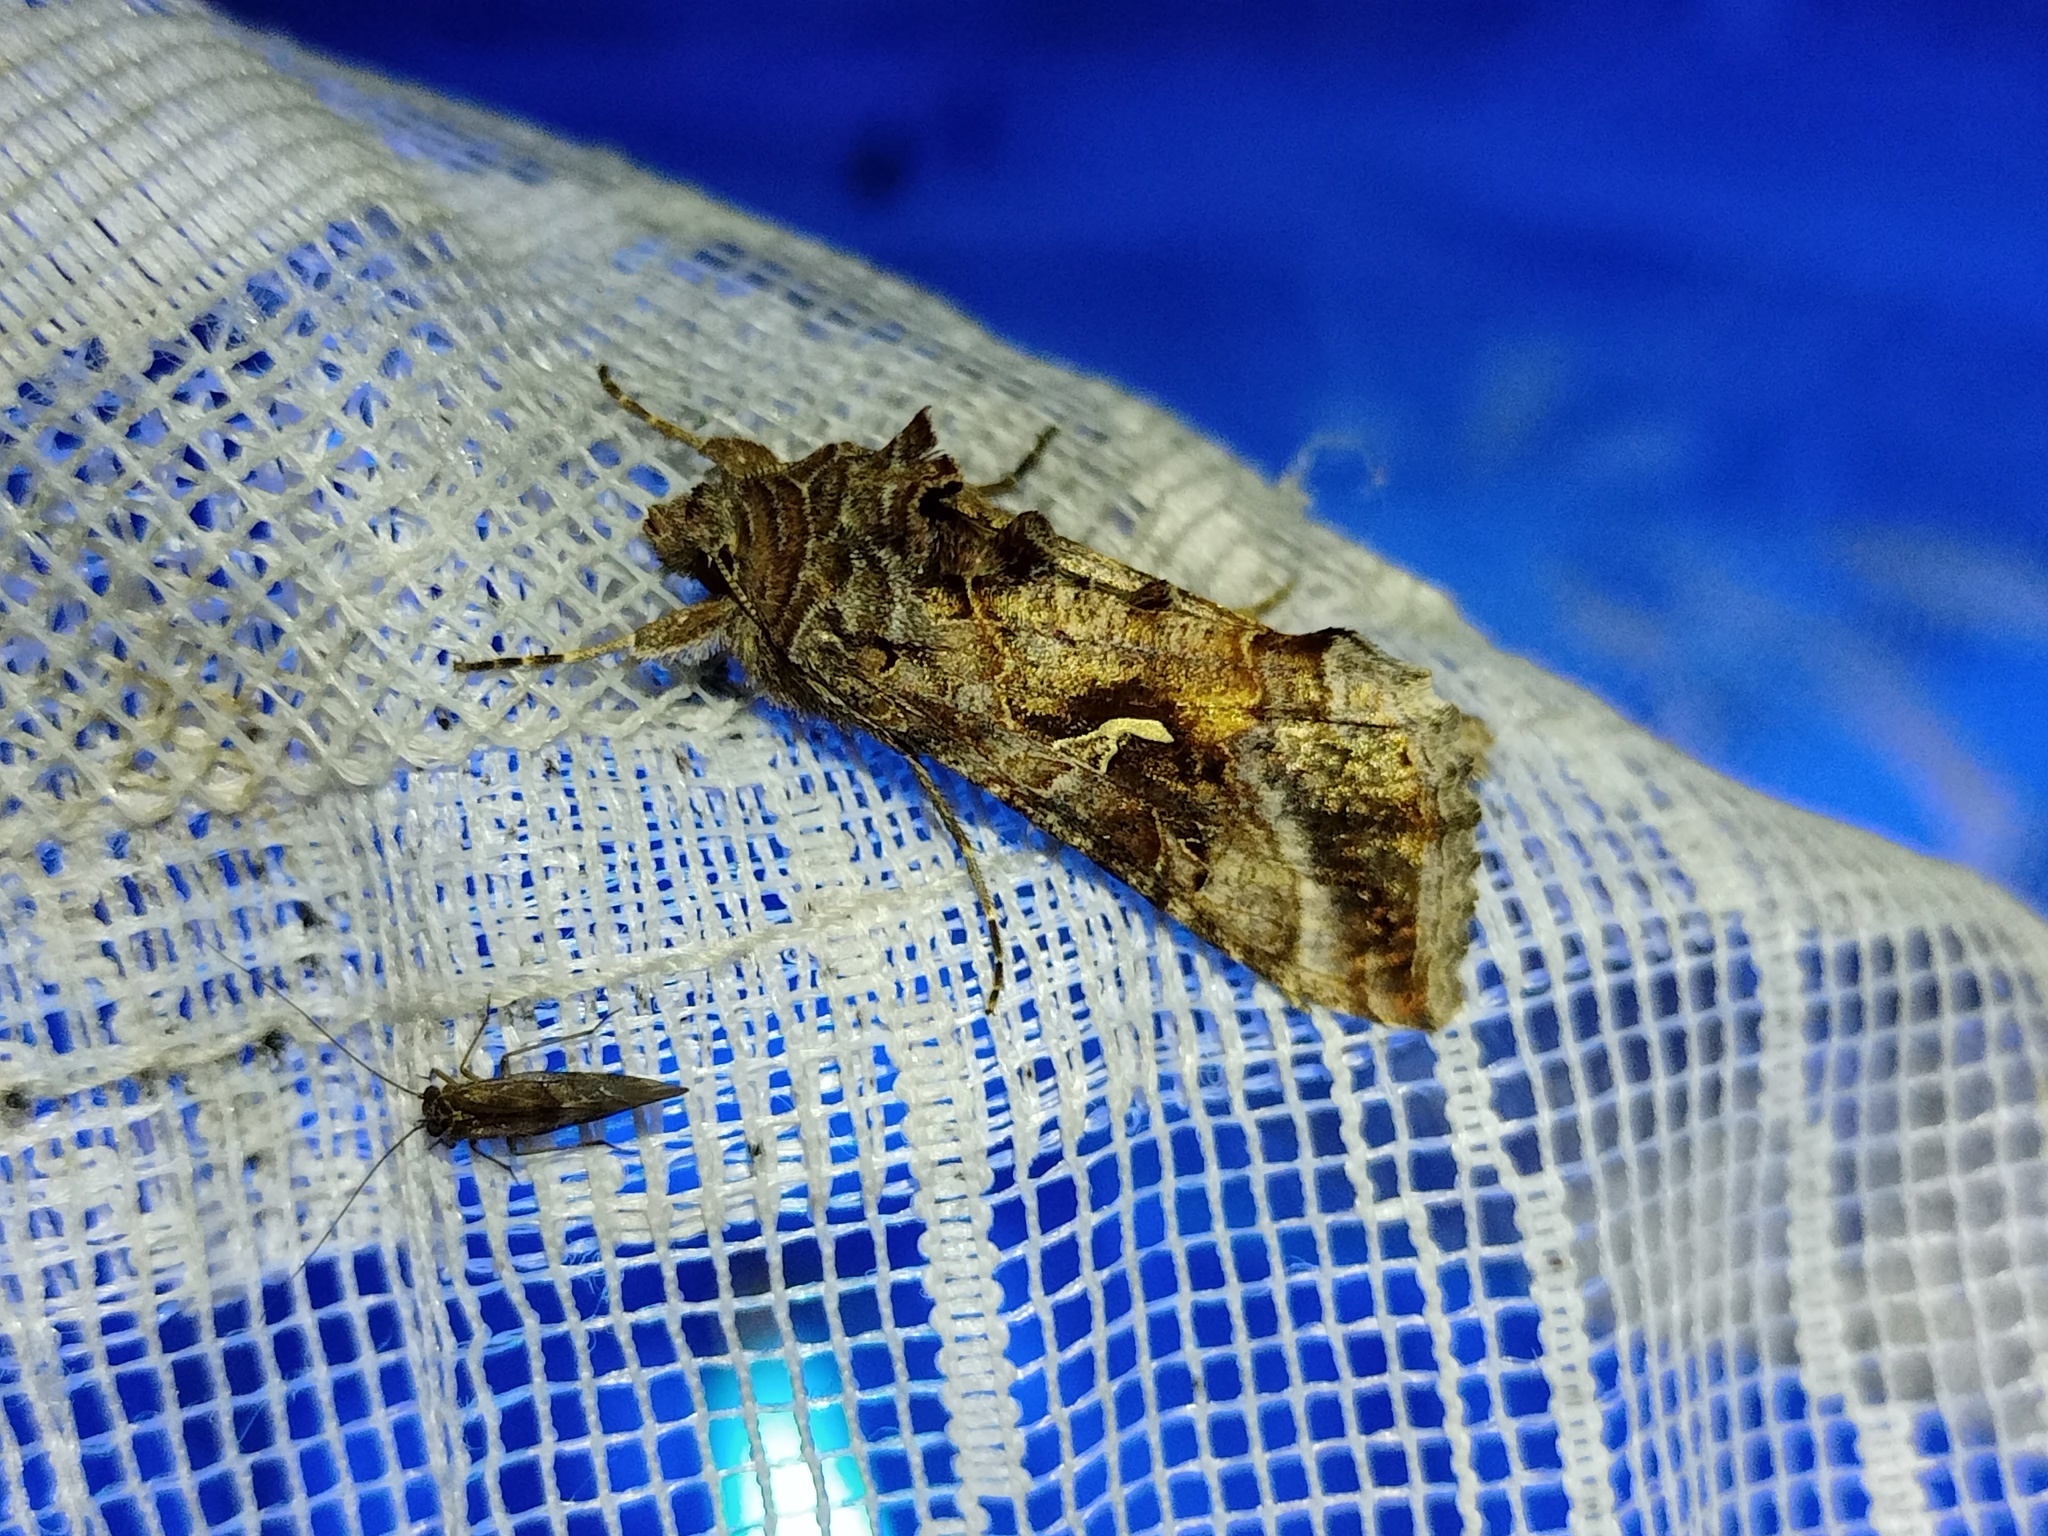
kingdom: Animalia
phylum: Arthropoda
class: Insecta
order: Lepidoptera
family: Noctuidae
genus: Autographa
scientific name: Autographa gamma
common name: Silver y
